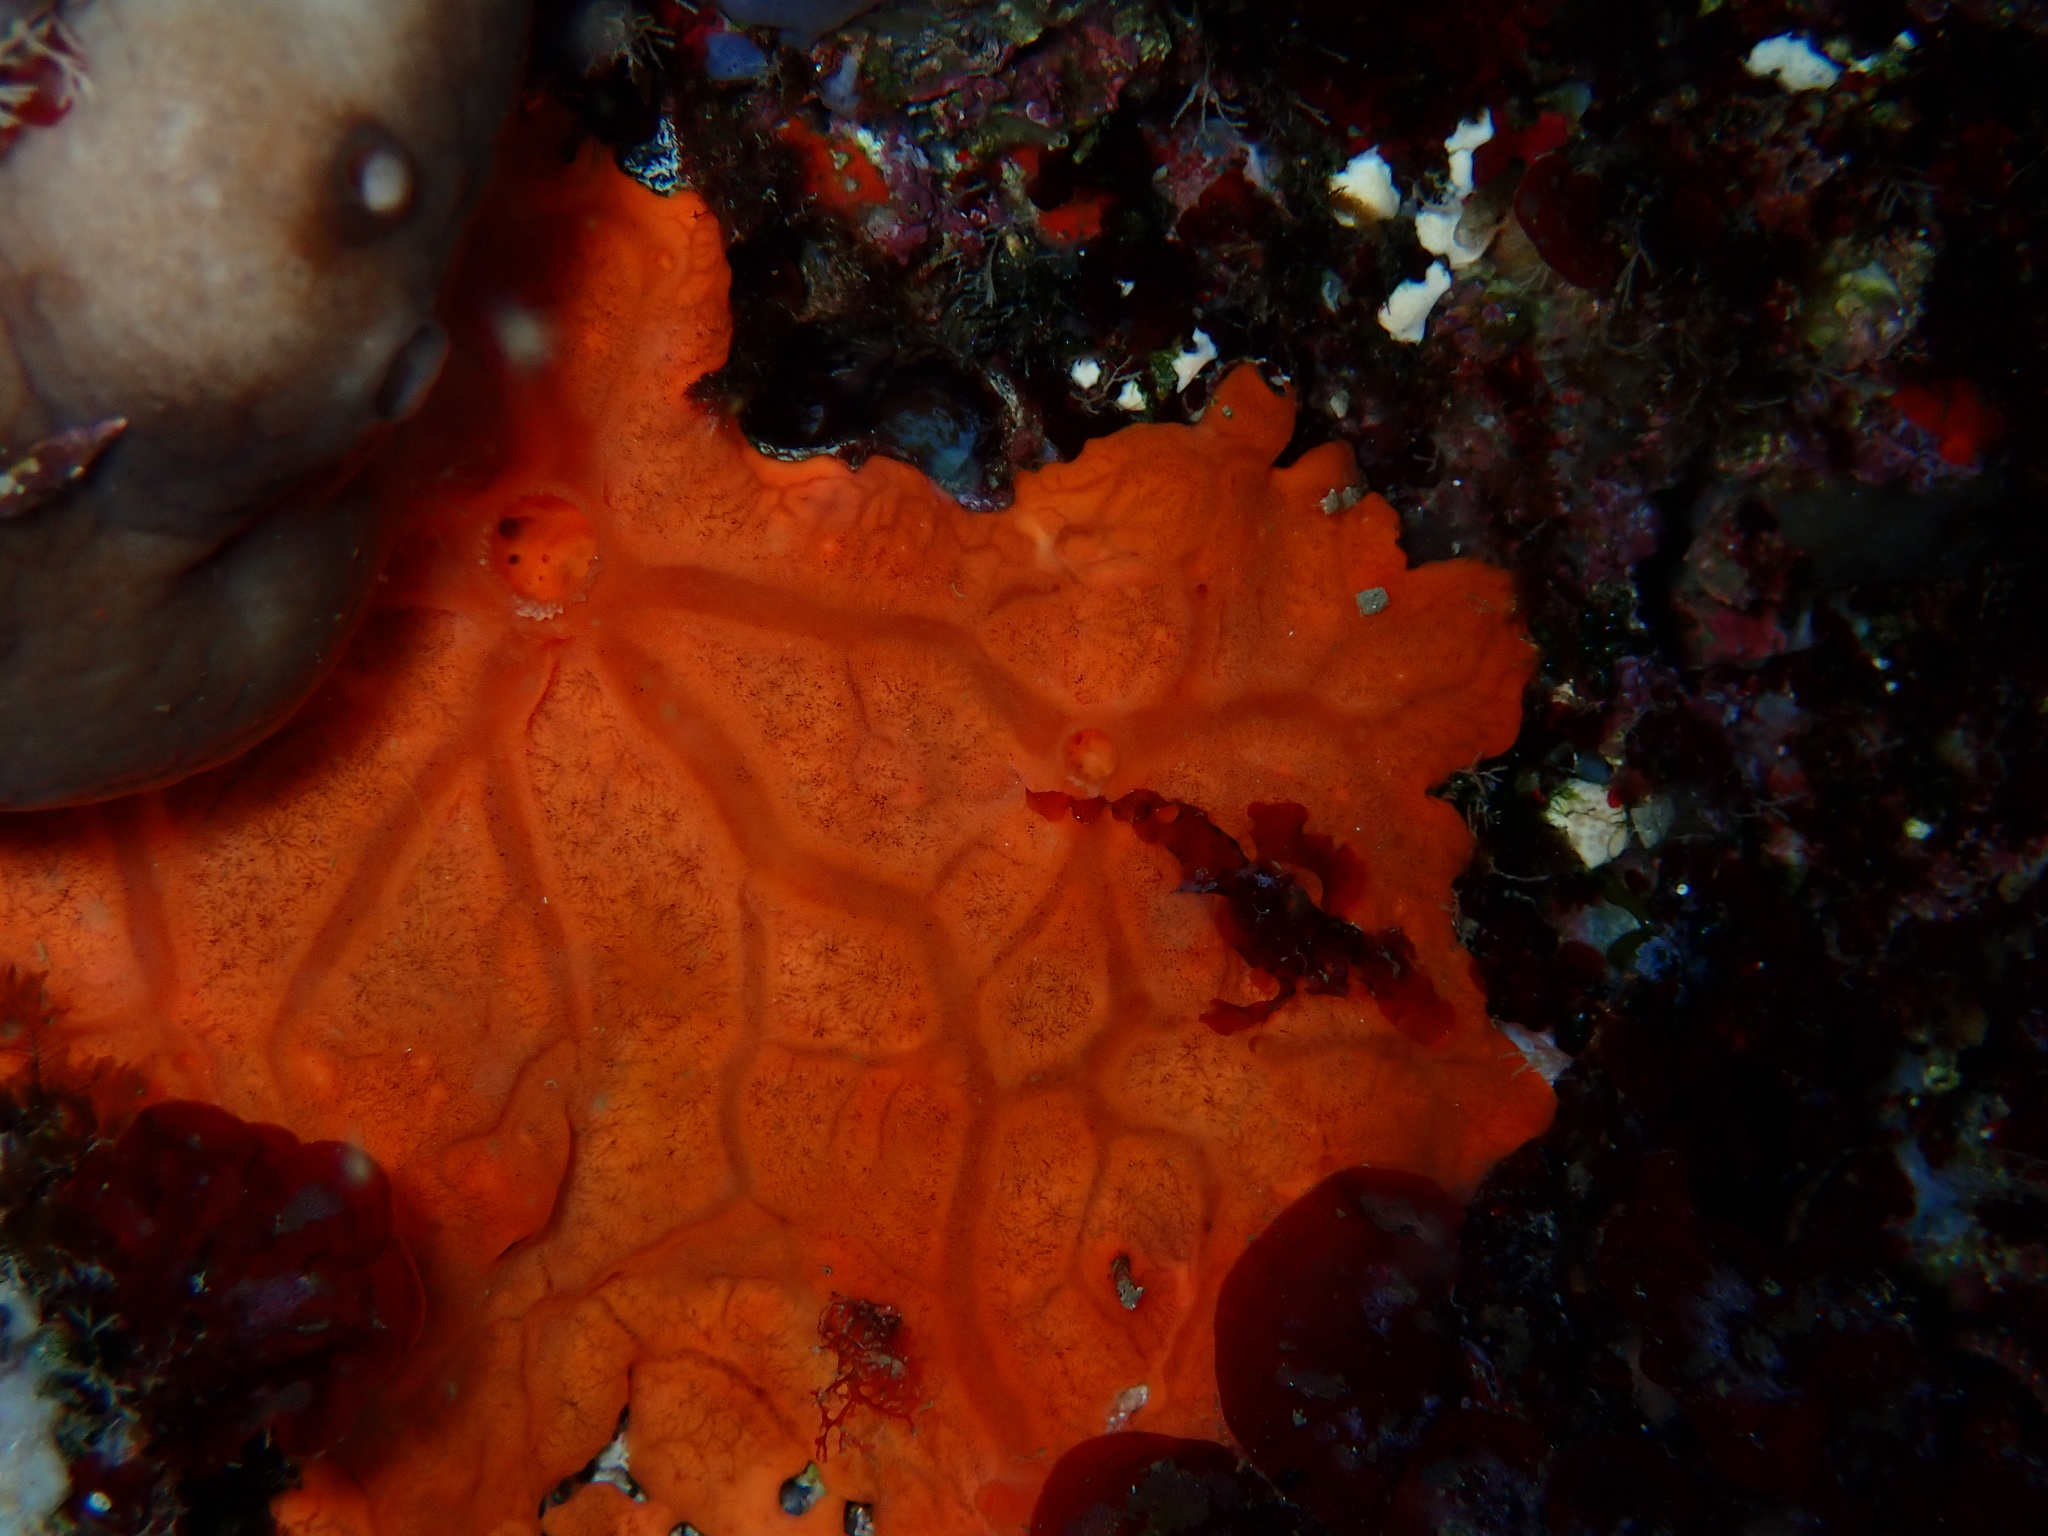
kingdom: Animalia
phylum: Porifera
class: Demospongiae
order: Clionaida
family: Spirastrellidae
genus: Spirastrella
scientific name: Spirastrella cunctatrix
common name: Encrusting orange sponge
